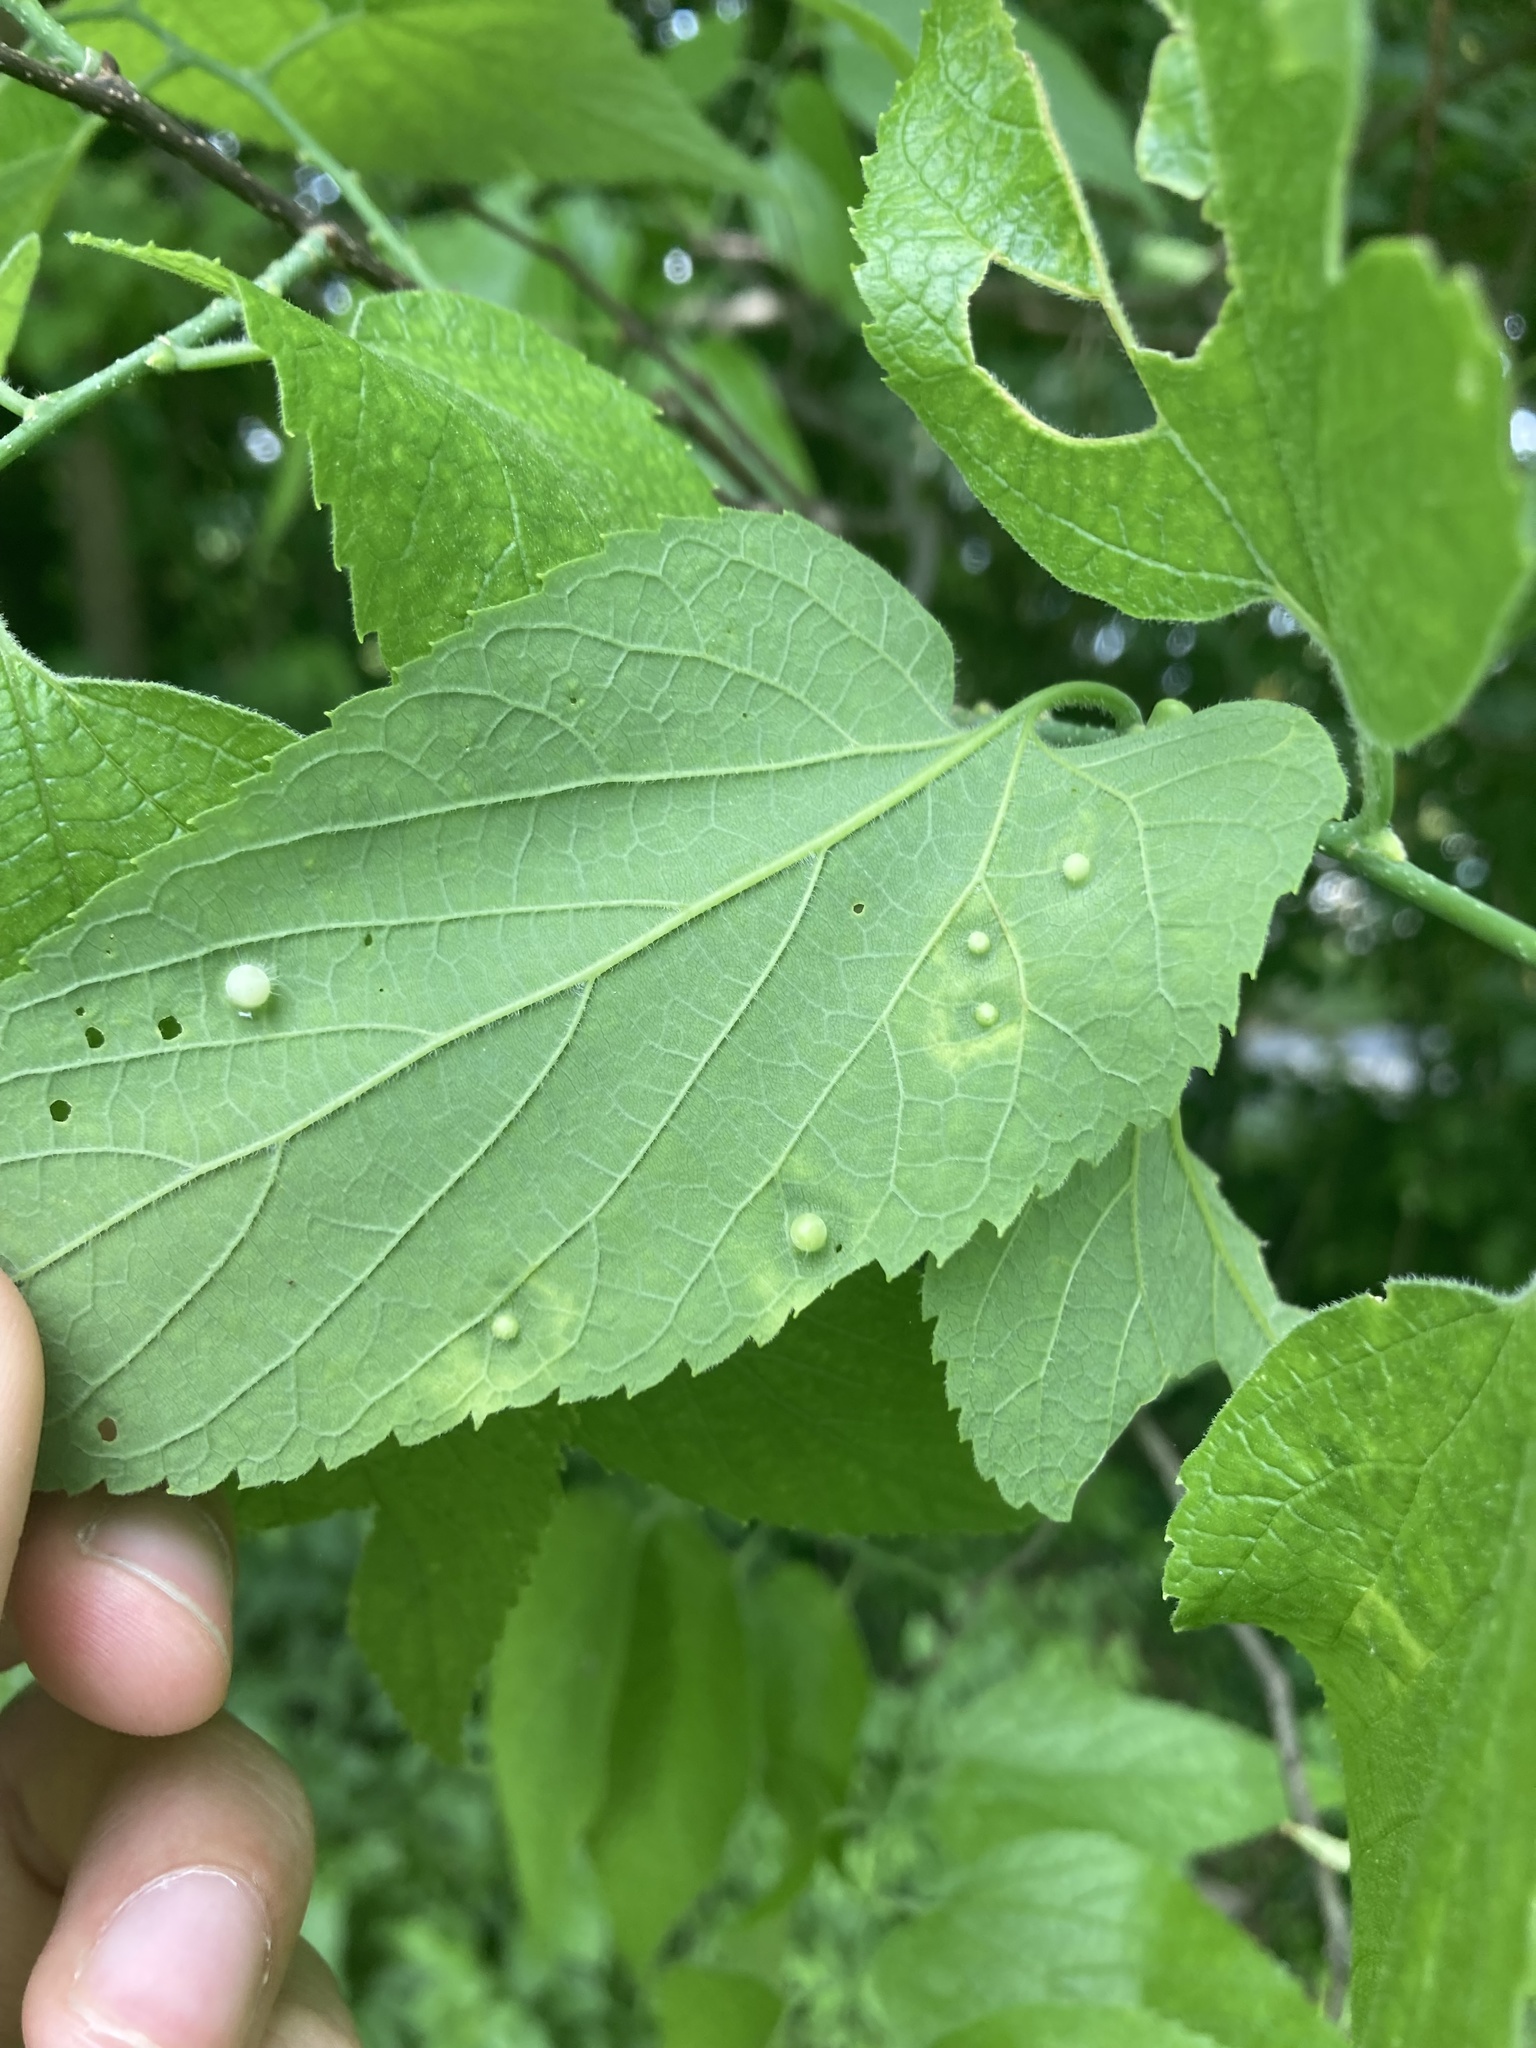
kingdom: Animalia
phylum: Arthropoda
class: Insecta
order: Hemiptera
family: Aphalaridae
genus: Pachypsylla
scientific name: Pachypsylla celtidismamma
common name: Hackberry nipplegall psyllid
